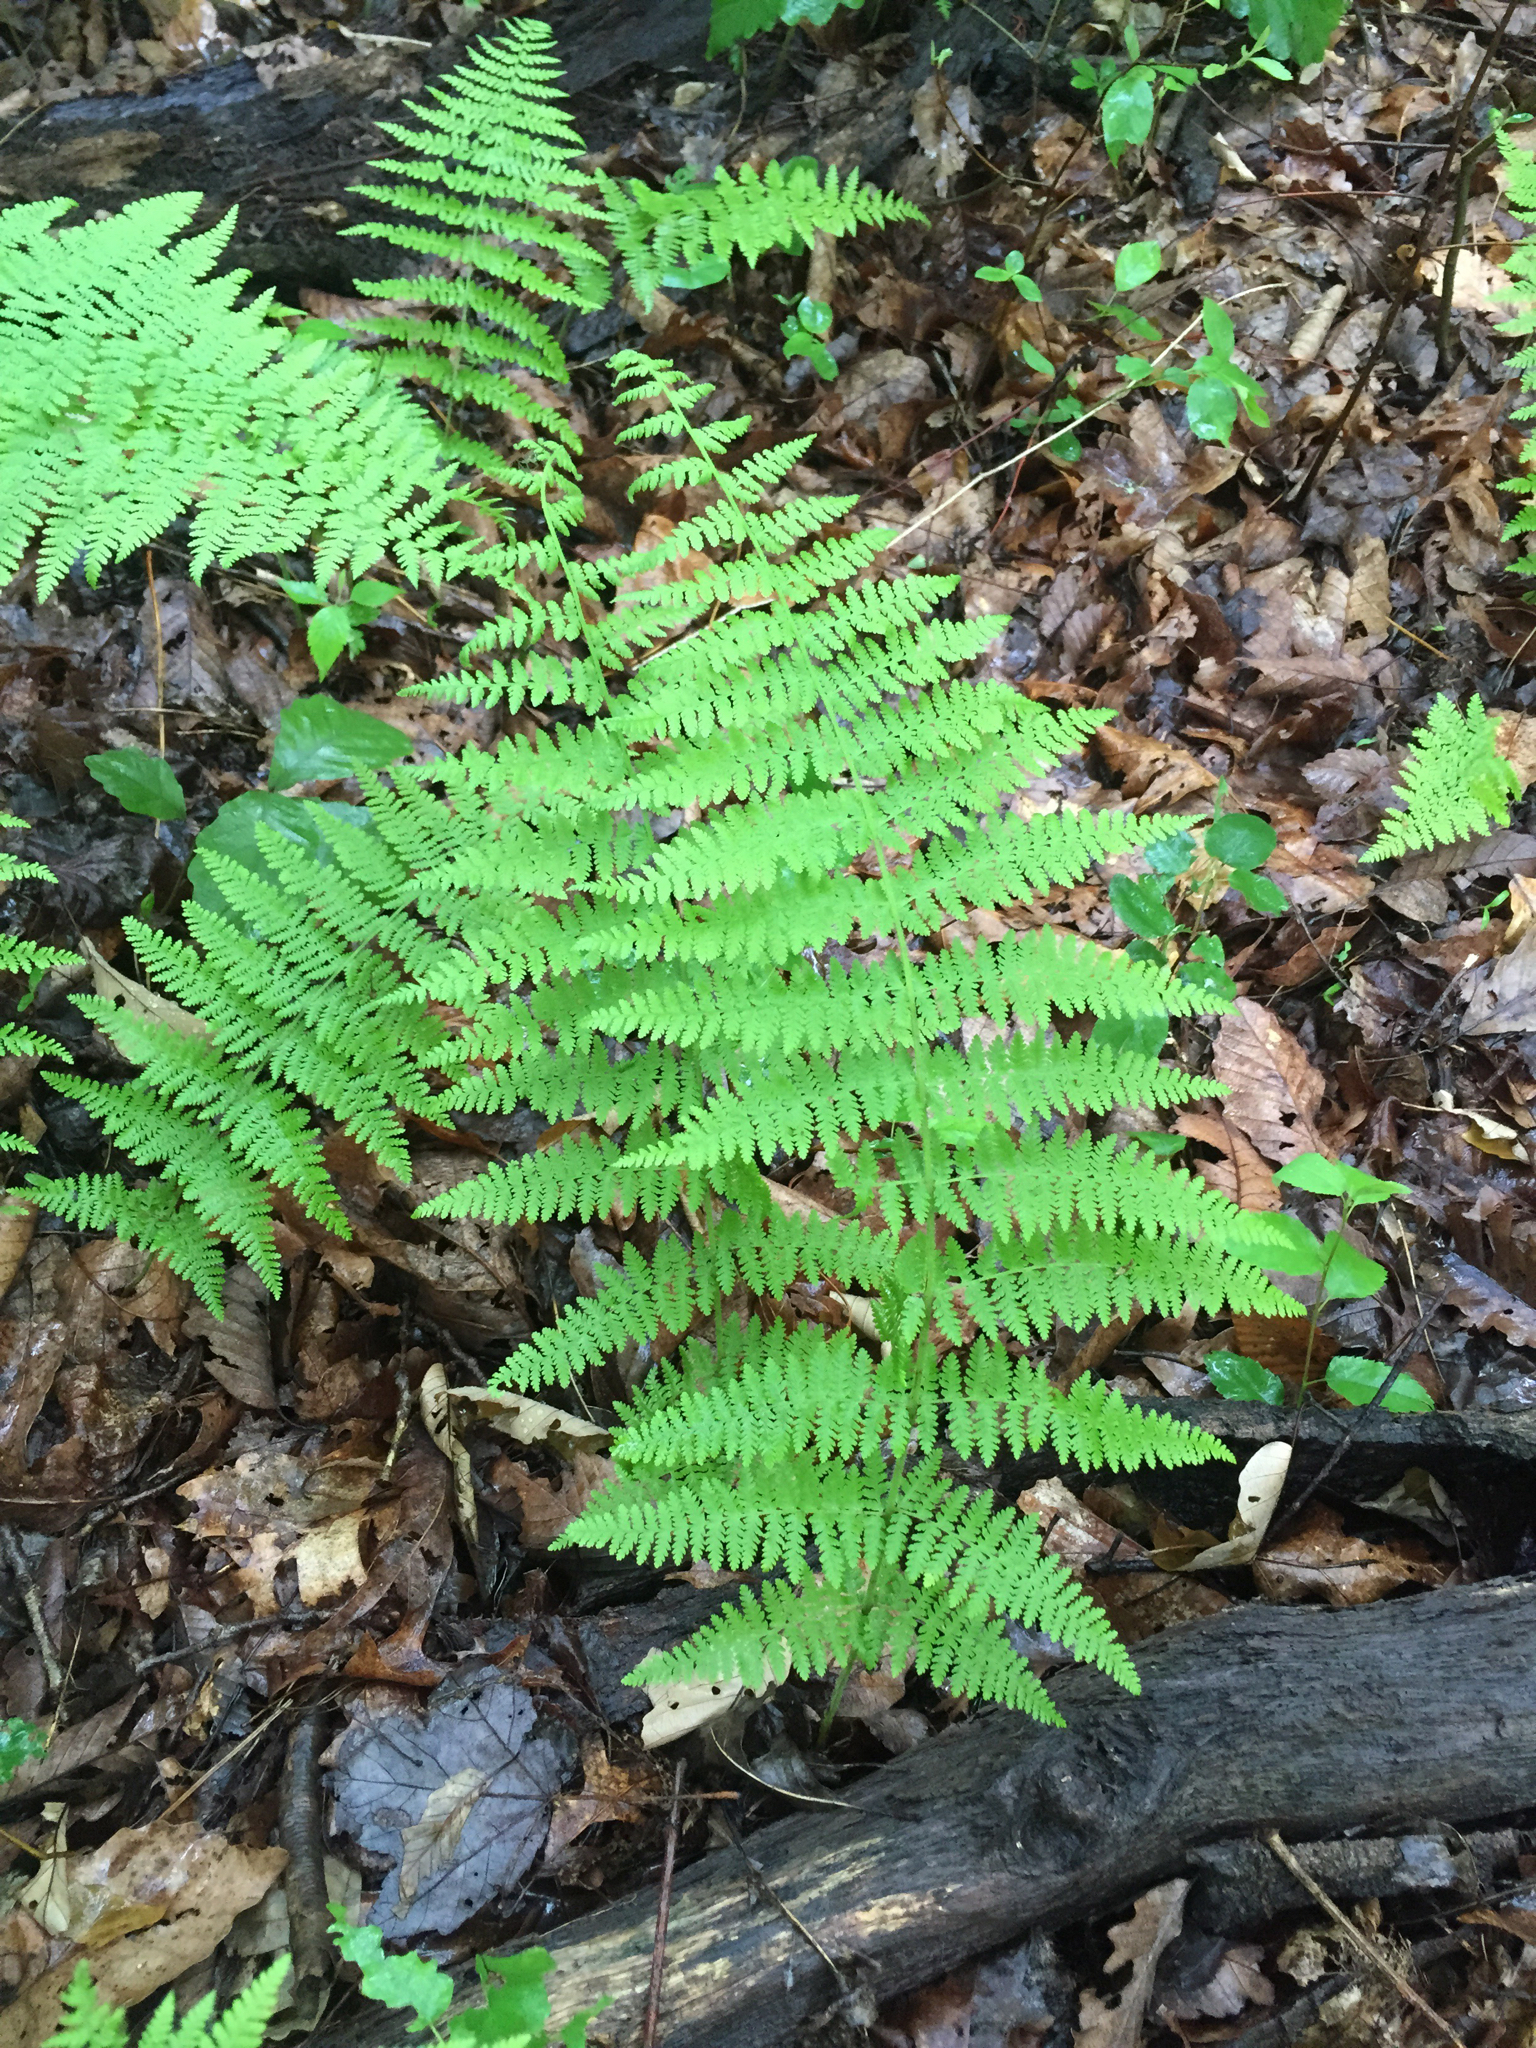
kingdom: Plantae
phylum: Tracheophyta
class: Polypodiopsida
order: Polypodiales
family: Dennstaedtiaceae
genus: Sitobolium
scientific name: Sitobolium punctilobum
